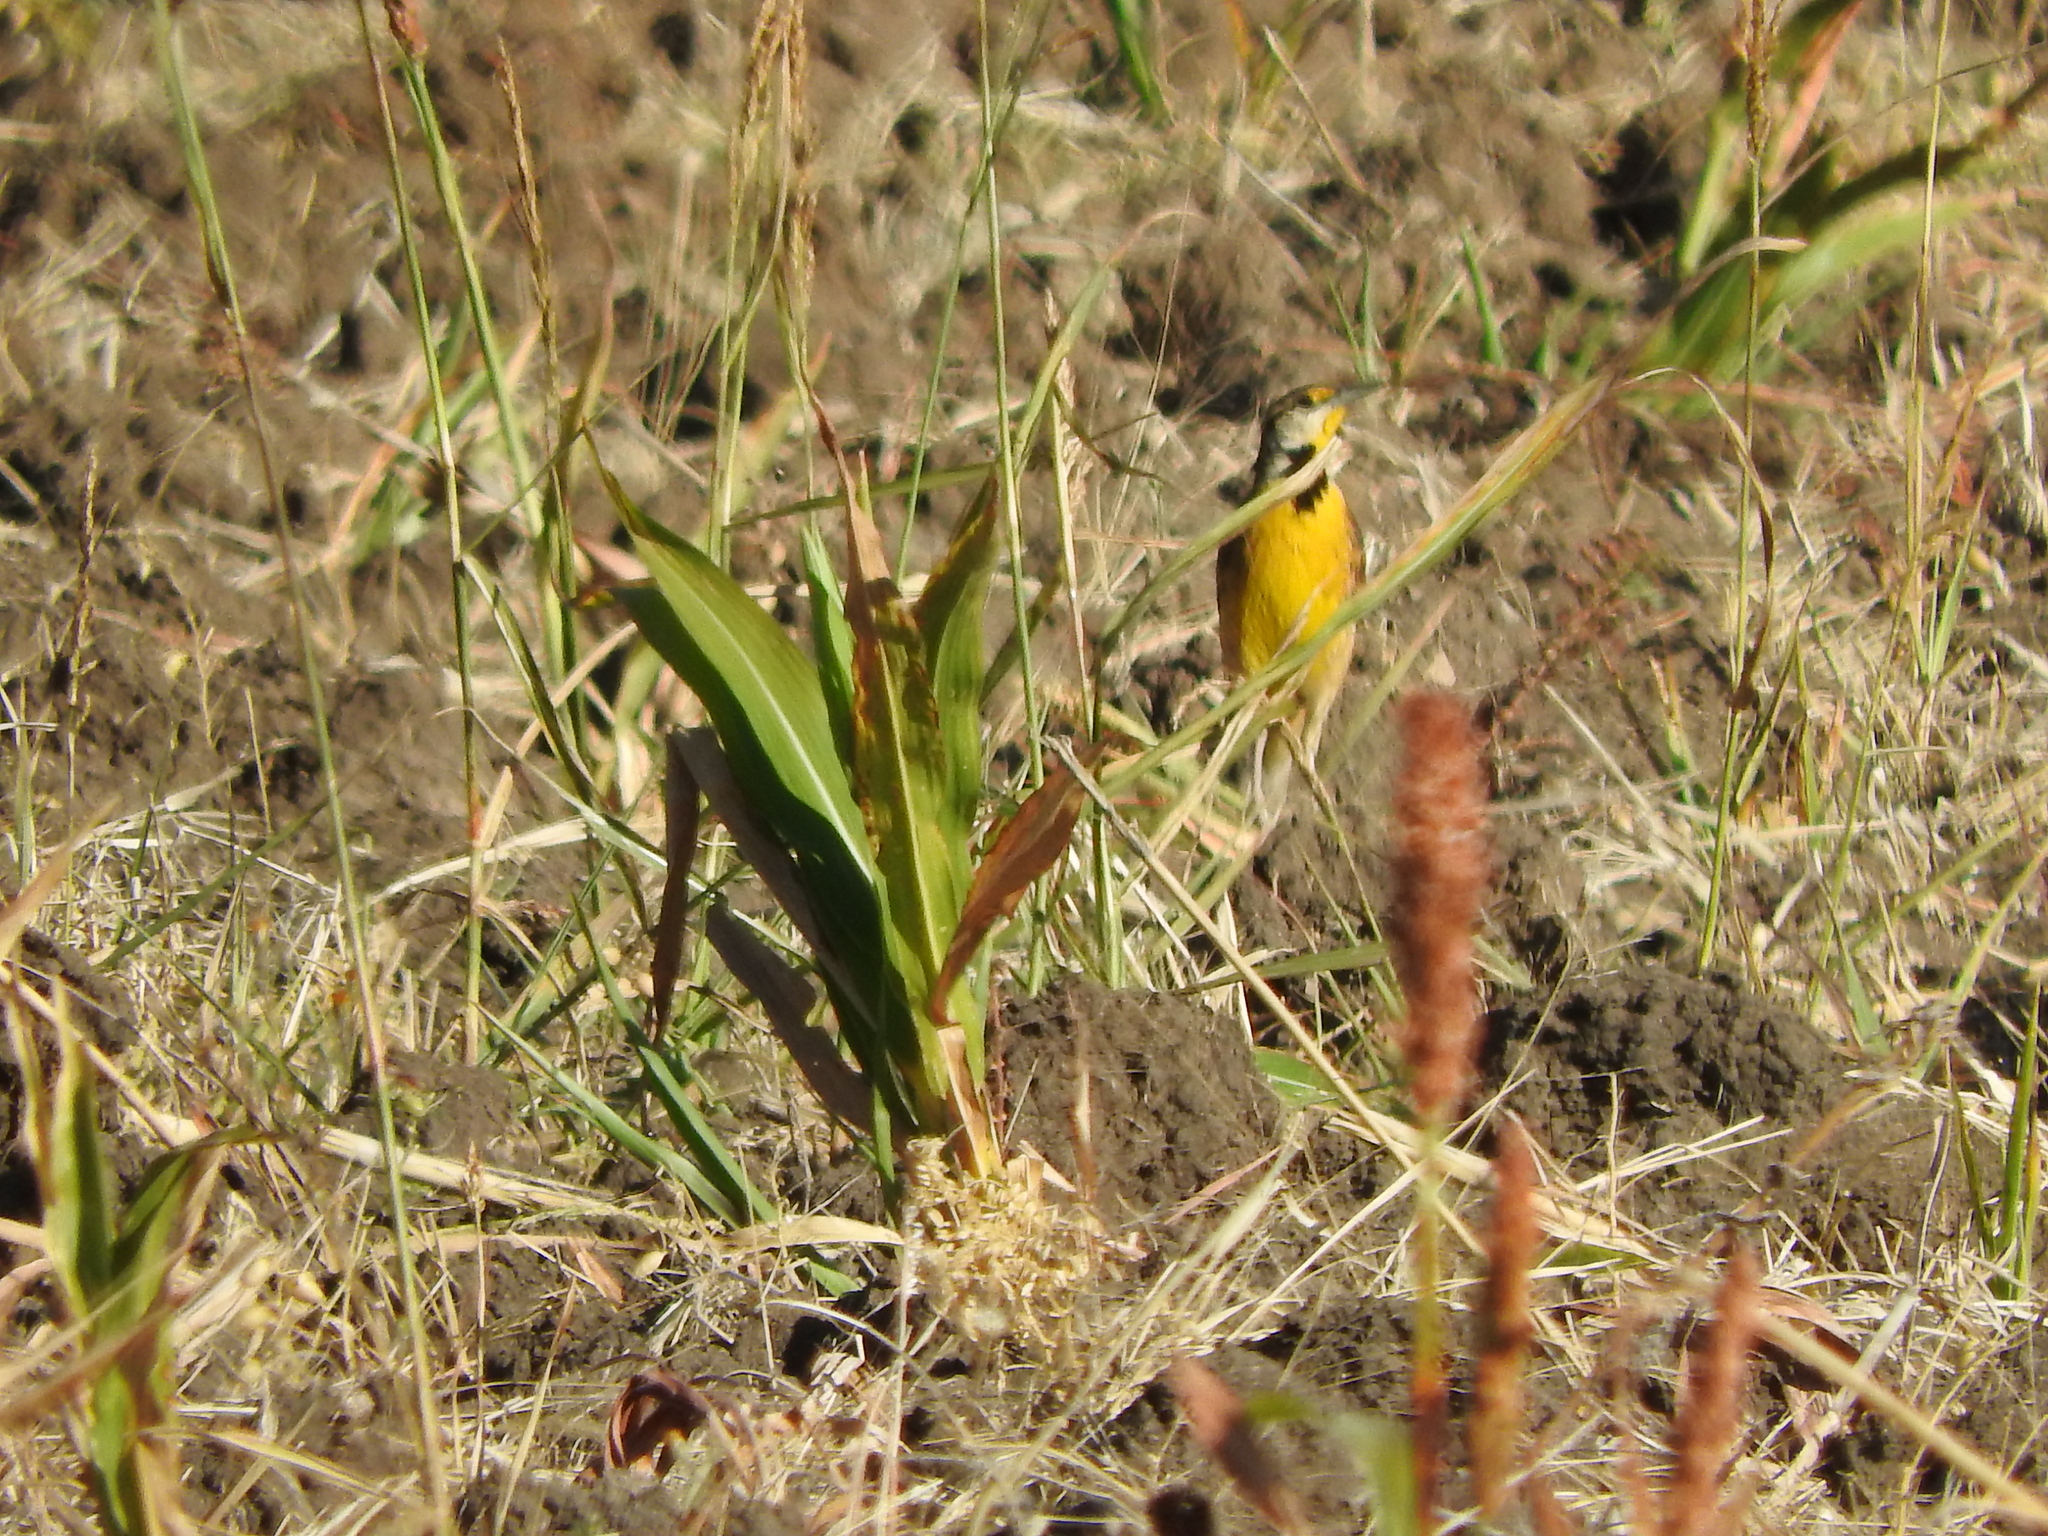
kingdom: Animalia
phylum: Chordata
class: Aves
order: Passeriformes
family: Icteridae
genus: Sturnella
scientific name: Sturnella lilianae
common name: Lilian's meadowlark
